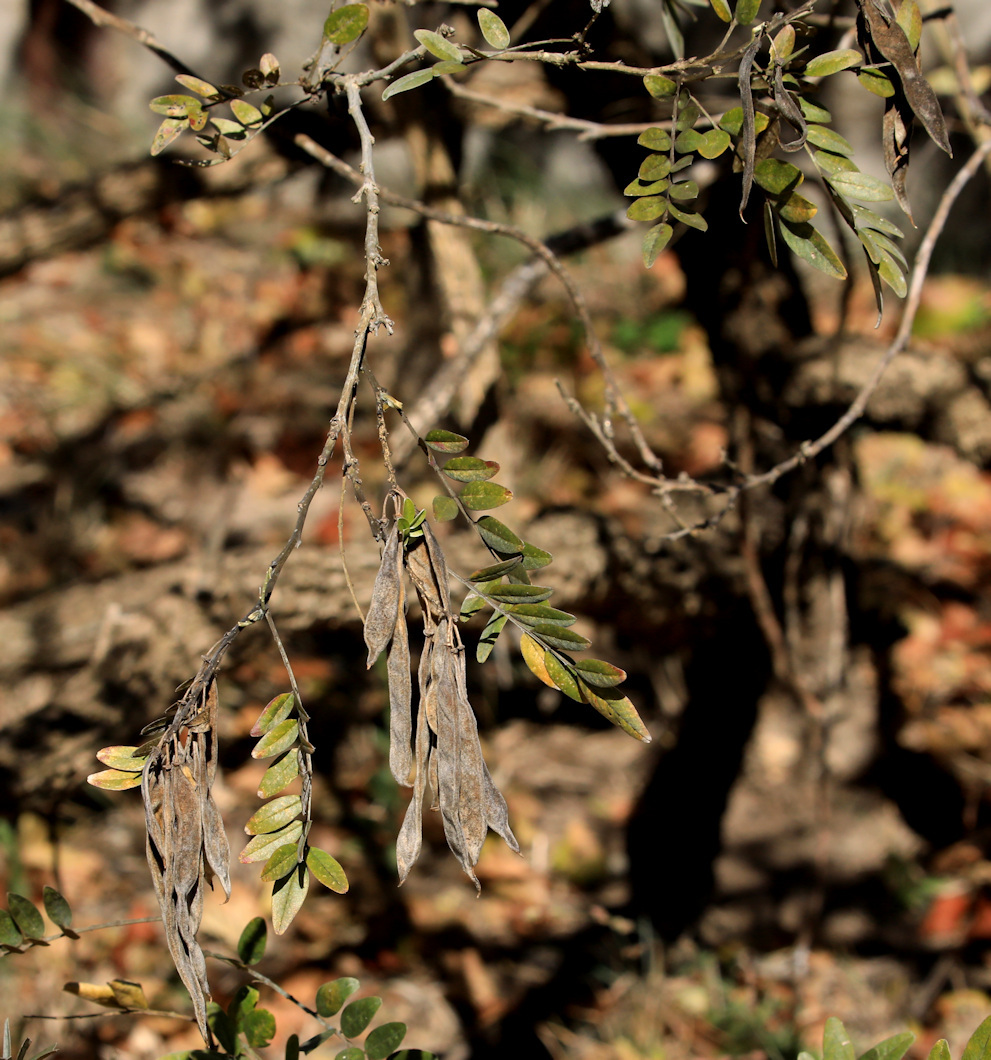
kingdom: Plantae
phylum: Tracheophyta
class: Magnoliopsida
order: Fabales
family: Fabaceae
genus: Mundulea
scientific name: Mundulea sericea
